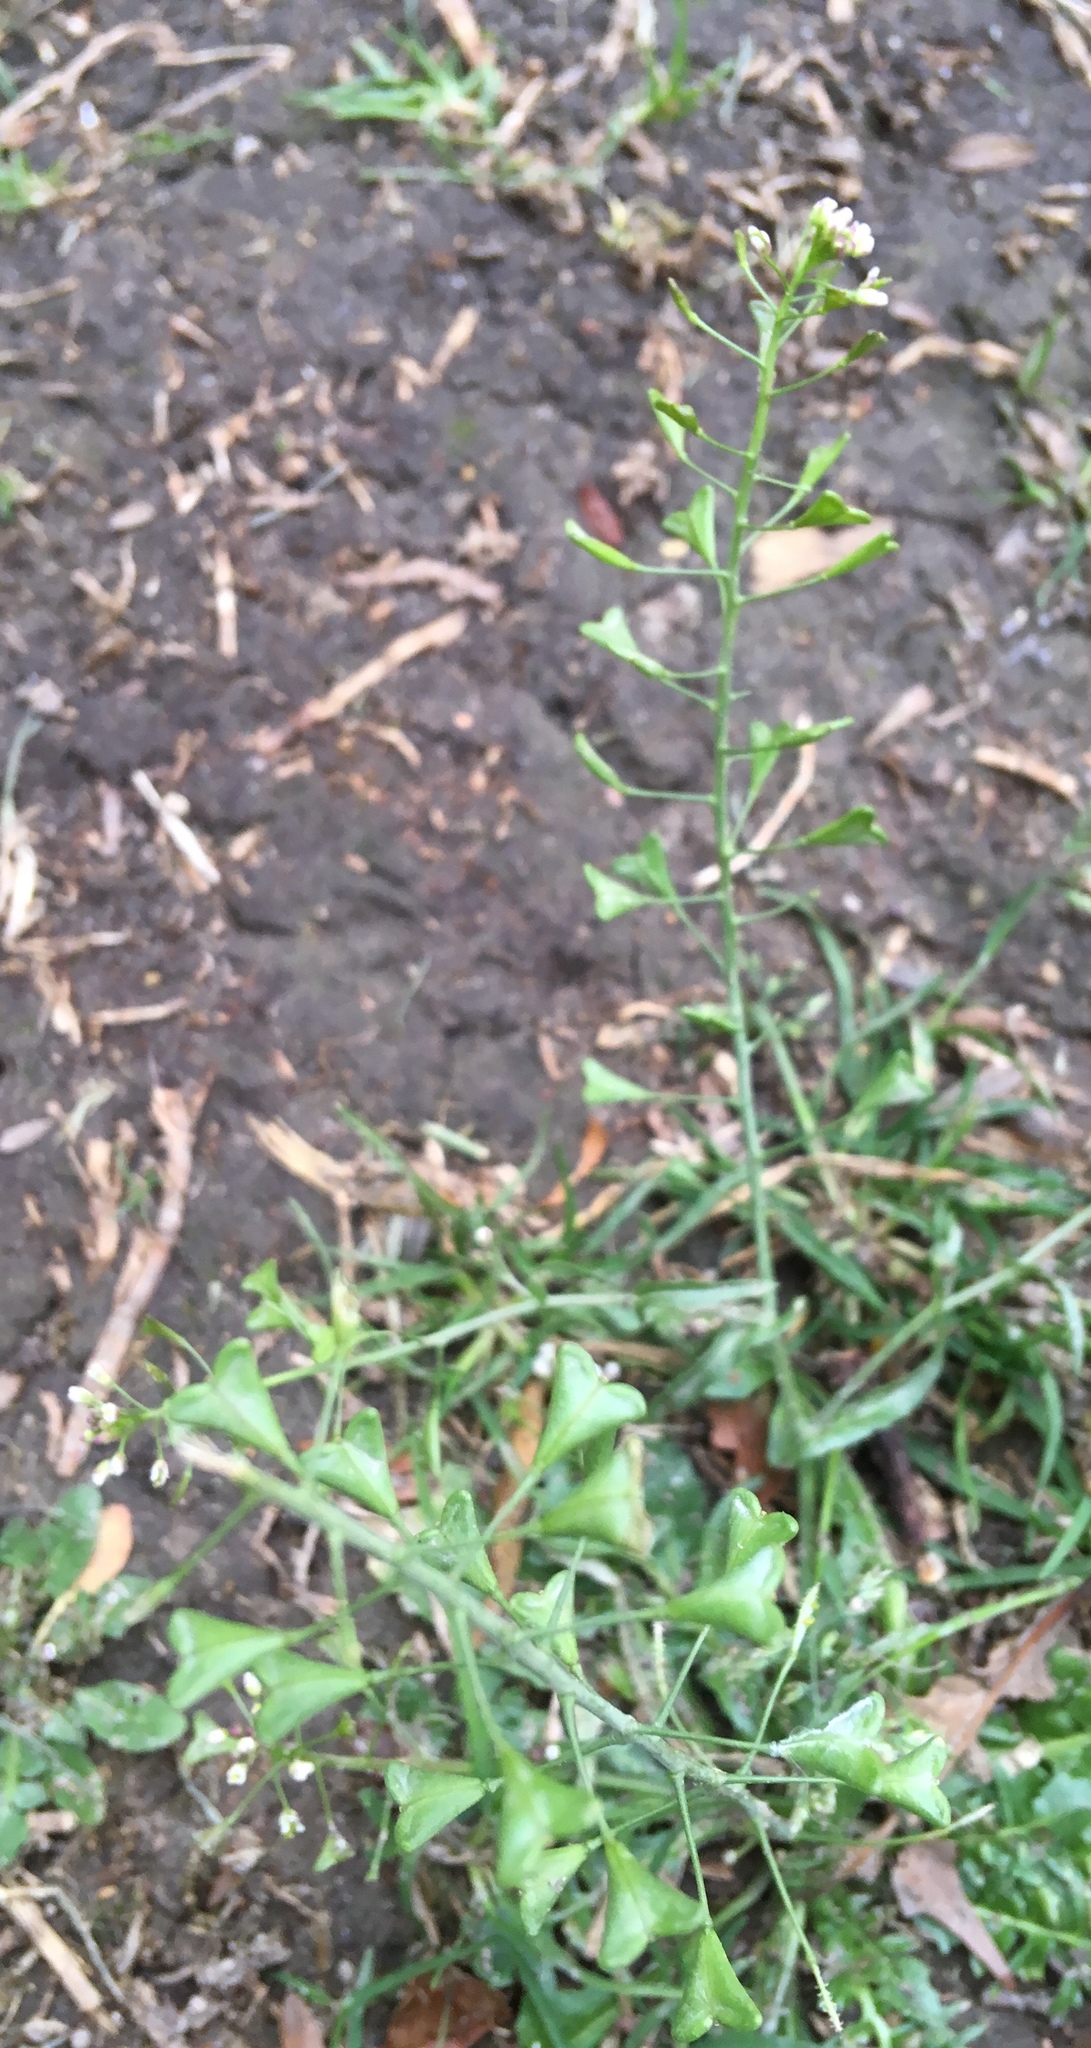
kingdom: Plantae
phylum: Tracheophyta
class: Magnoliopsida
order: Brassicales
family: Brassicaceae
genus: Capsella
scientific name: Capsella bursa-pastoris
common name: Shepherd's purse
